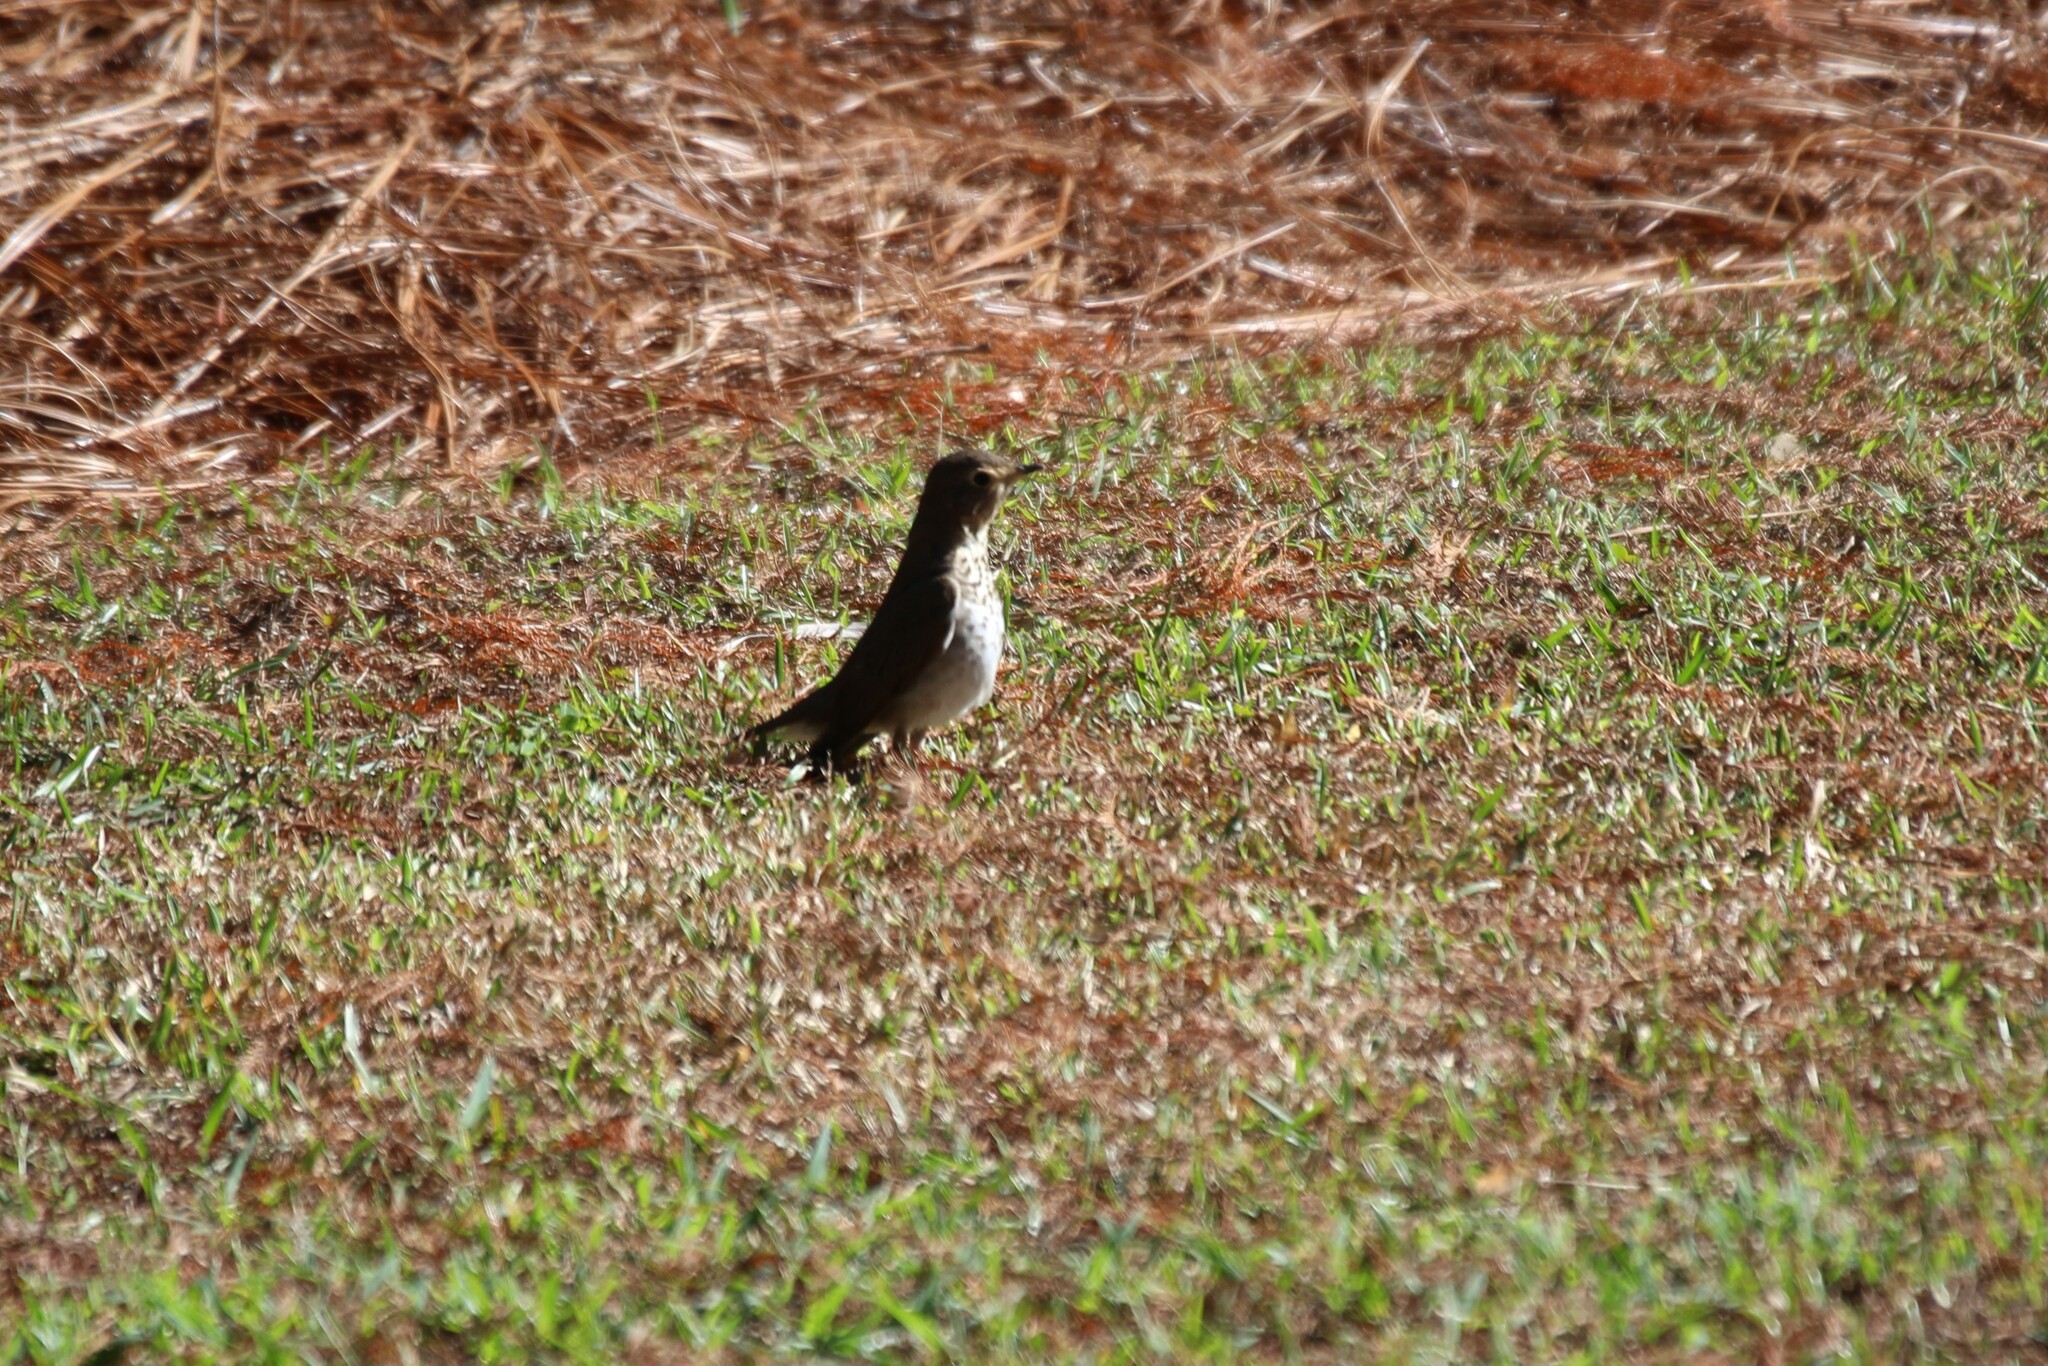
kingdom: Animalia
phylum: Chordata
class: Aves
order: Passeriformes
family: Turdidae
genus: Catharus
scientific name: Catharus guttatus
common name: Hermit thrush
